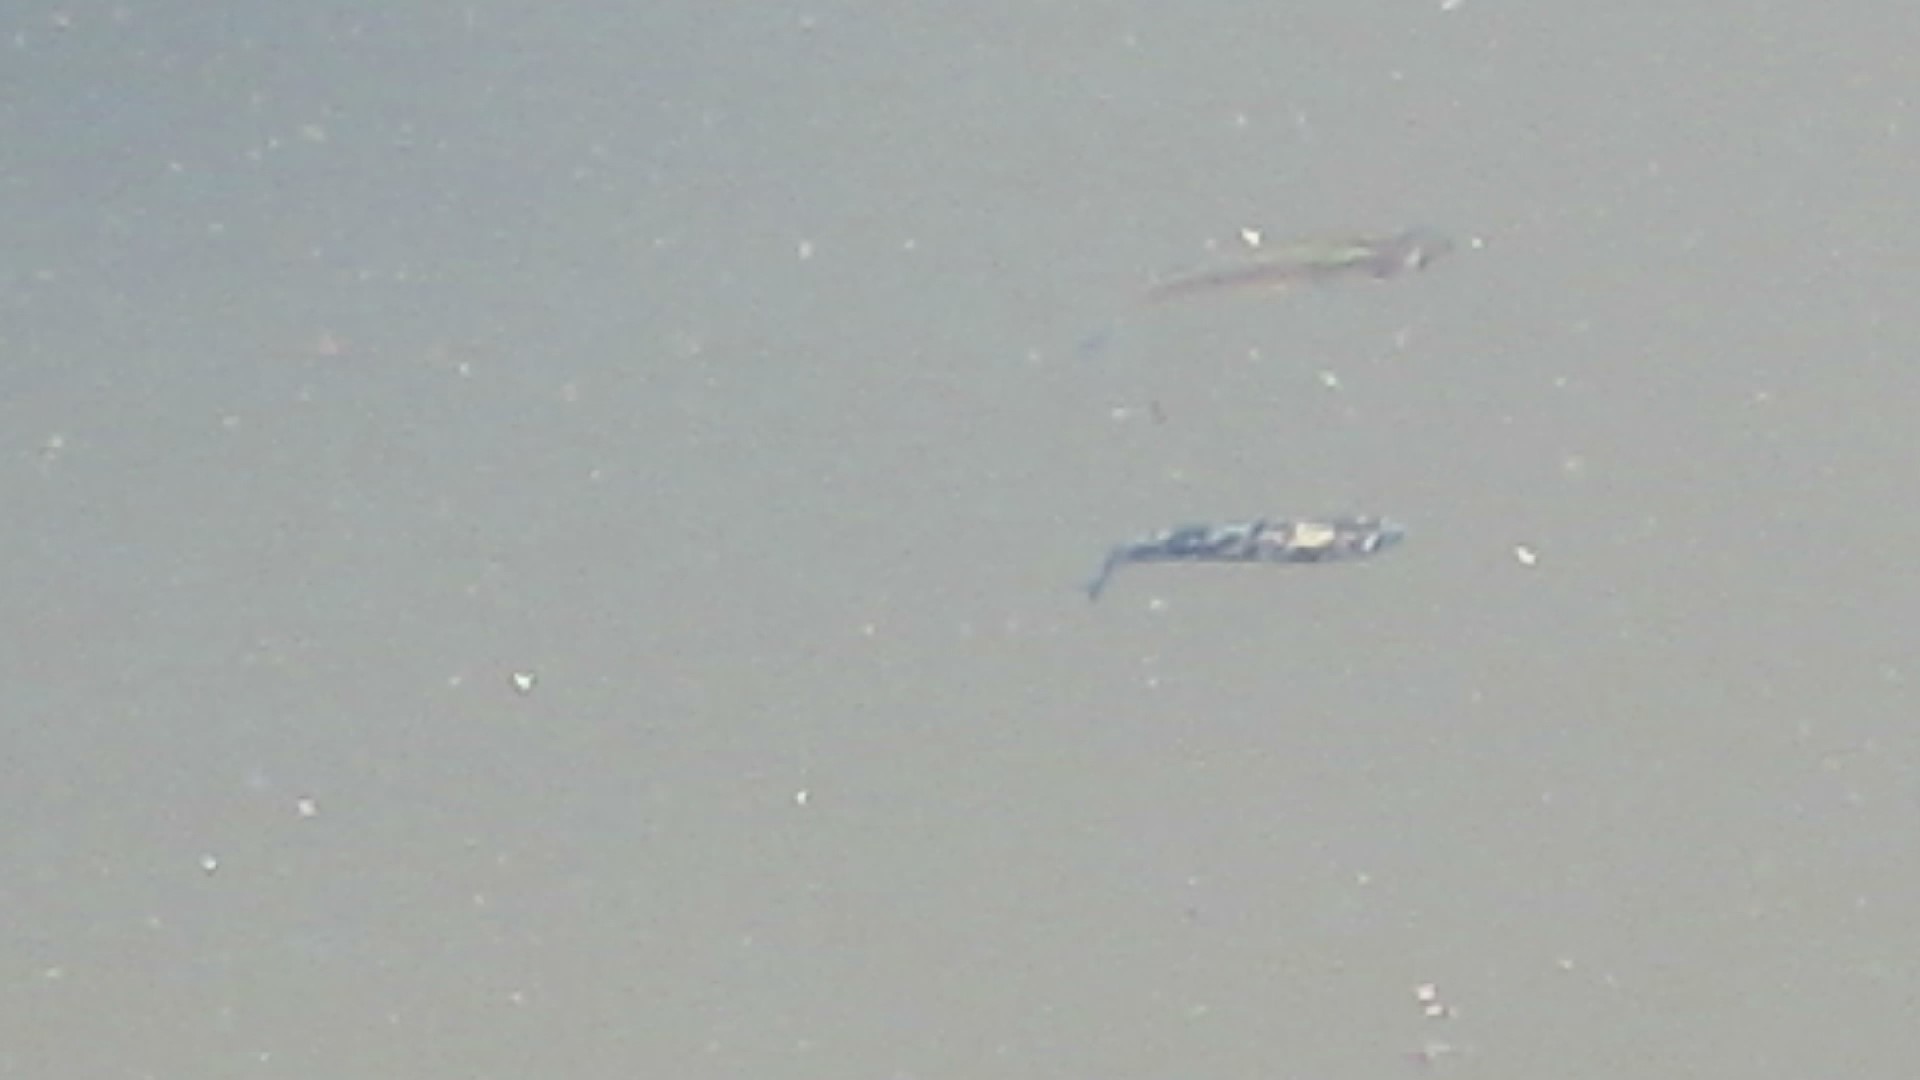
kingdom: Animalia
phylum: Chordata
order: Cyprinodontiformes
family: Poeciliidae
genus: Gambusia
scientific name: Gambusia holbrooki
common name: Eastern mosquitofish
